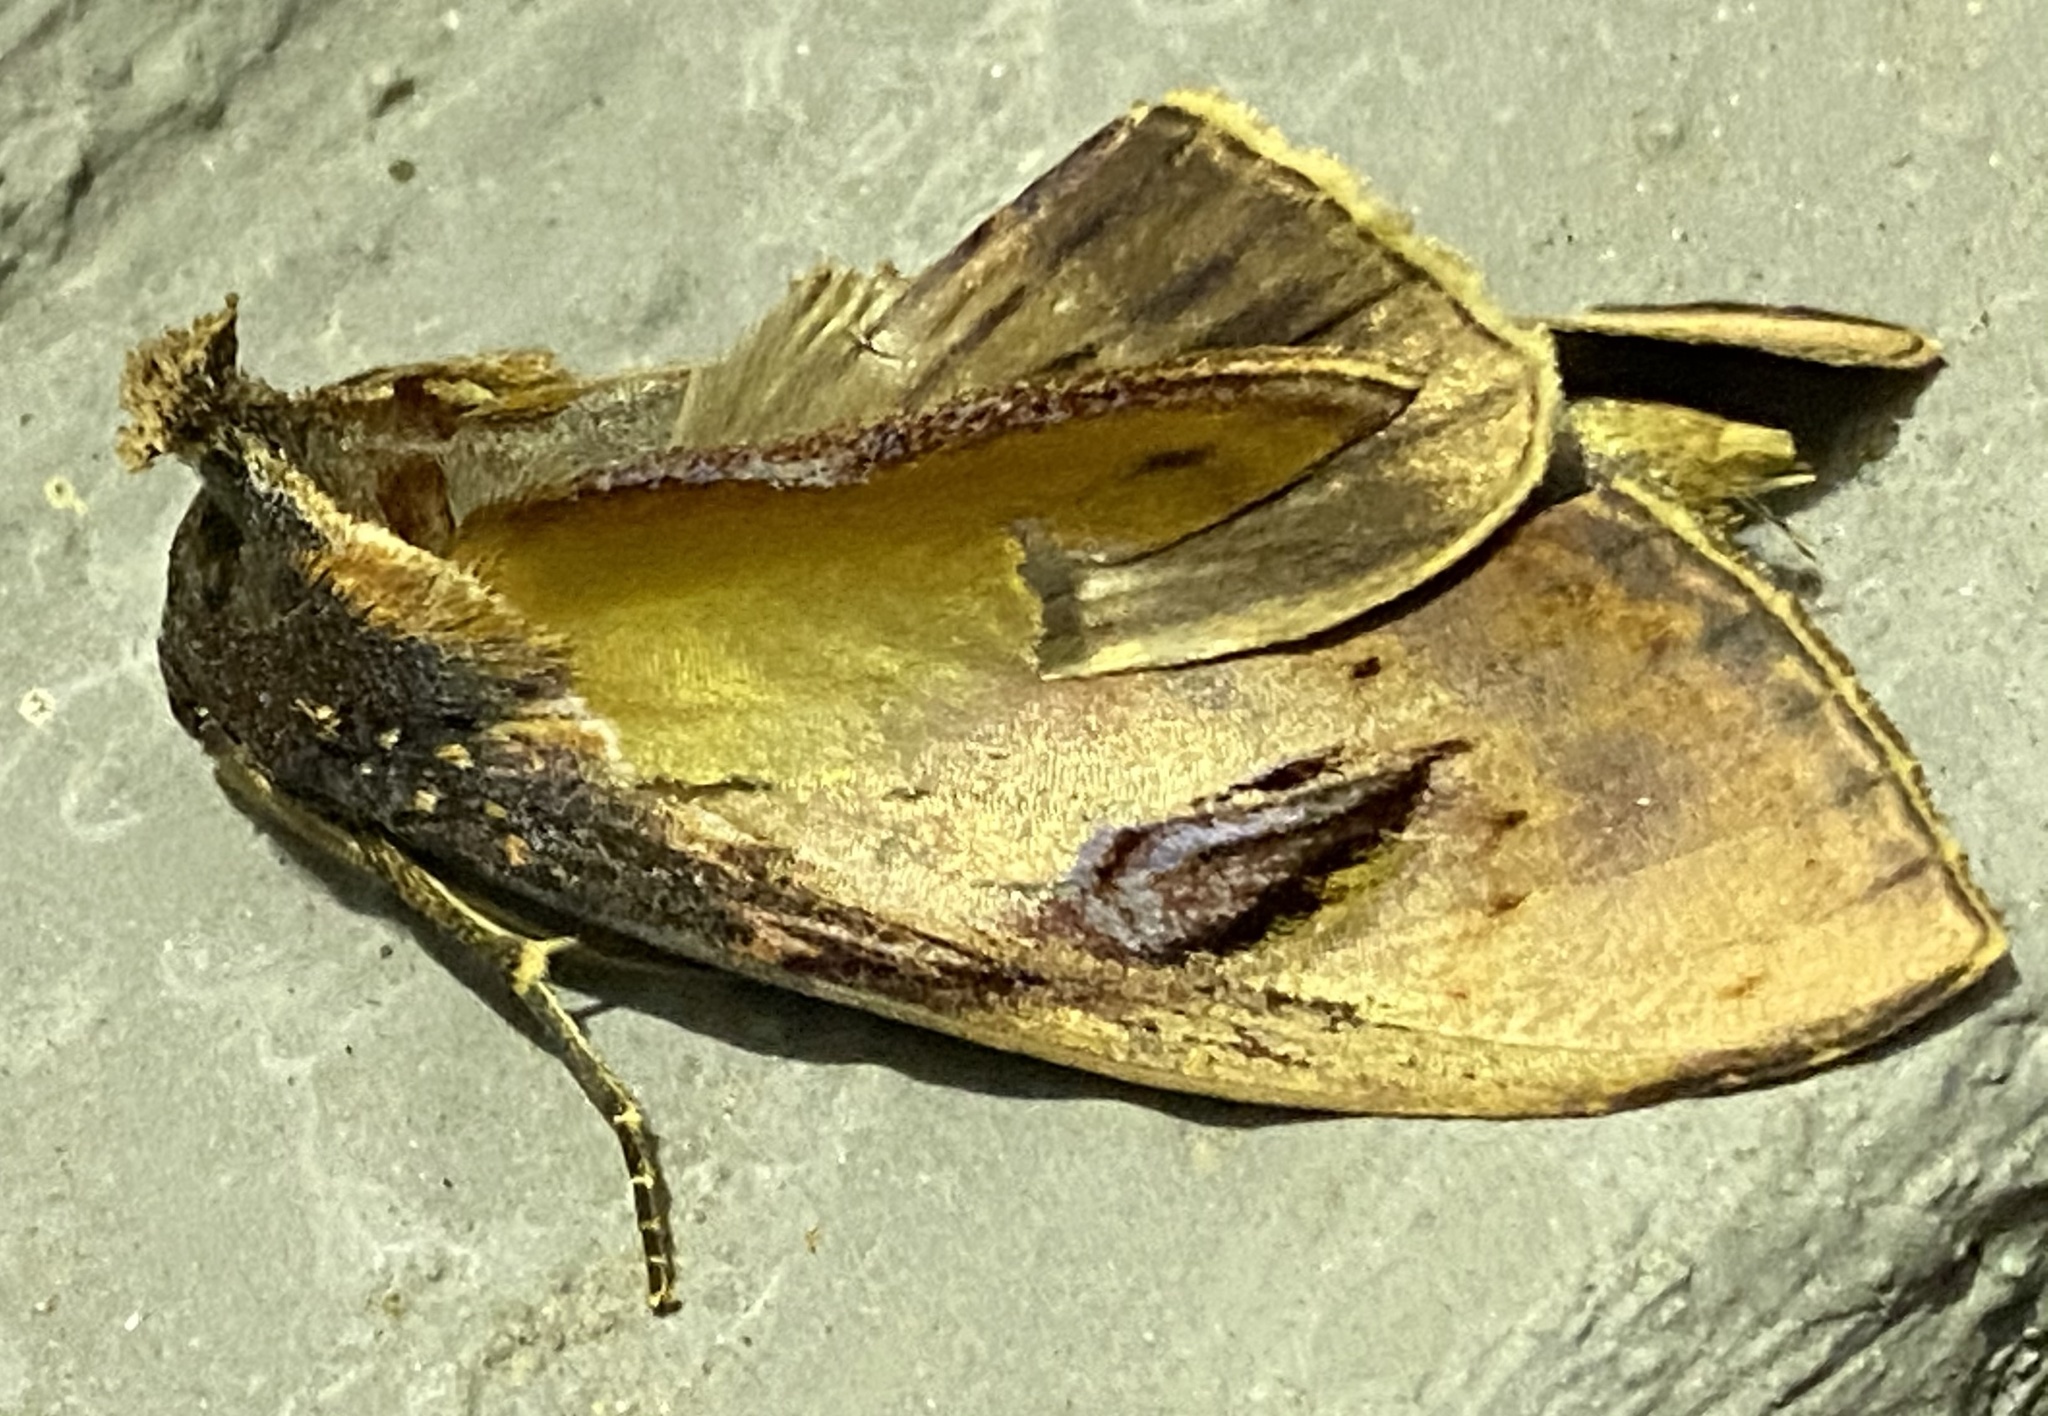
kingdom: Animalia
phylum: Arthropoda
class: Insecta
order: Lepidoptera
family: Notodontidae
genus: Crinodes
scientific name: Crinodes bellatrix
